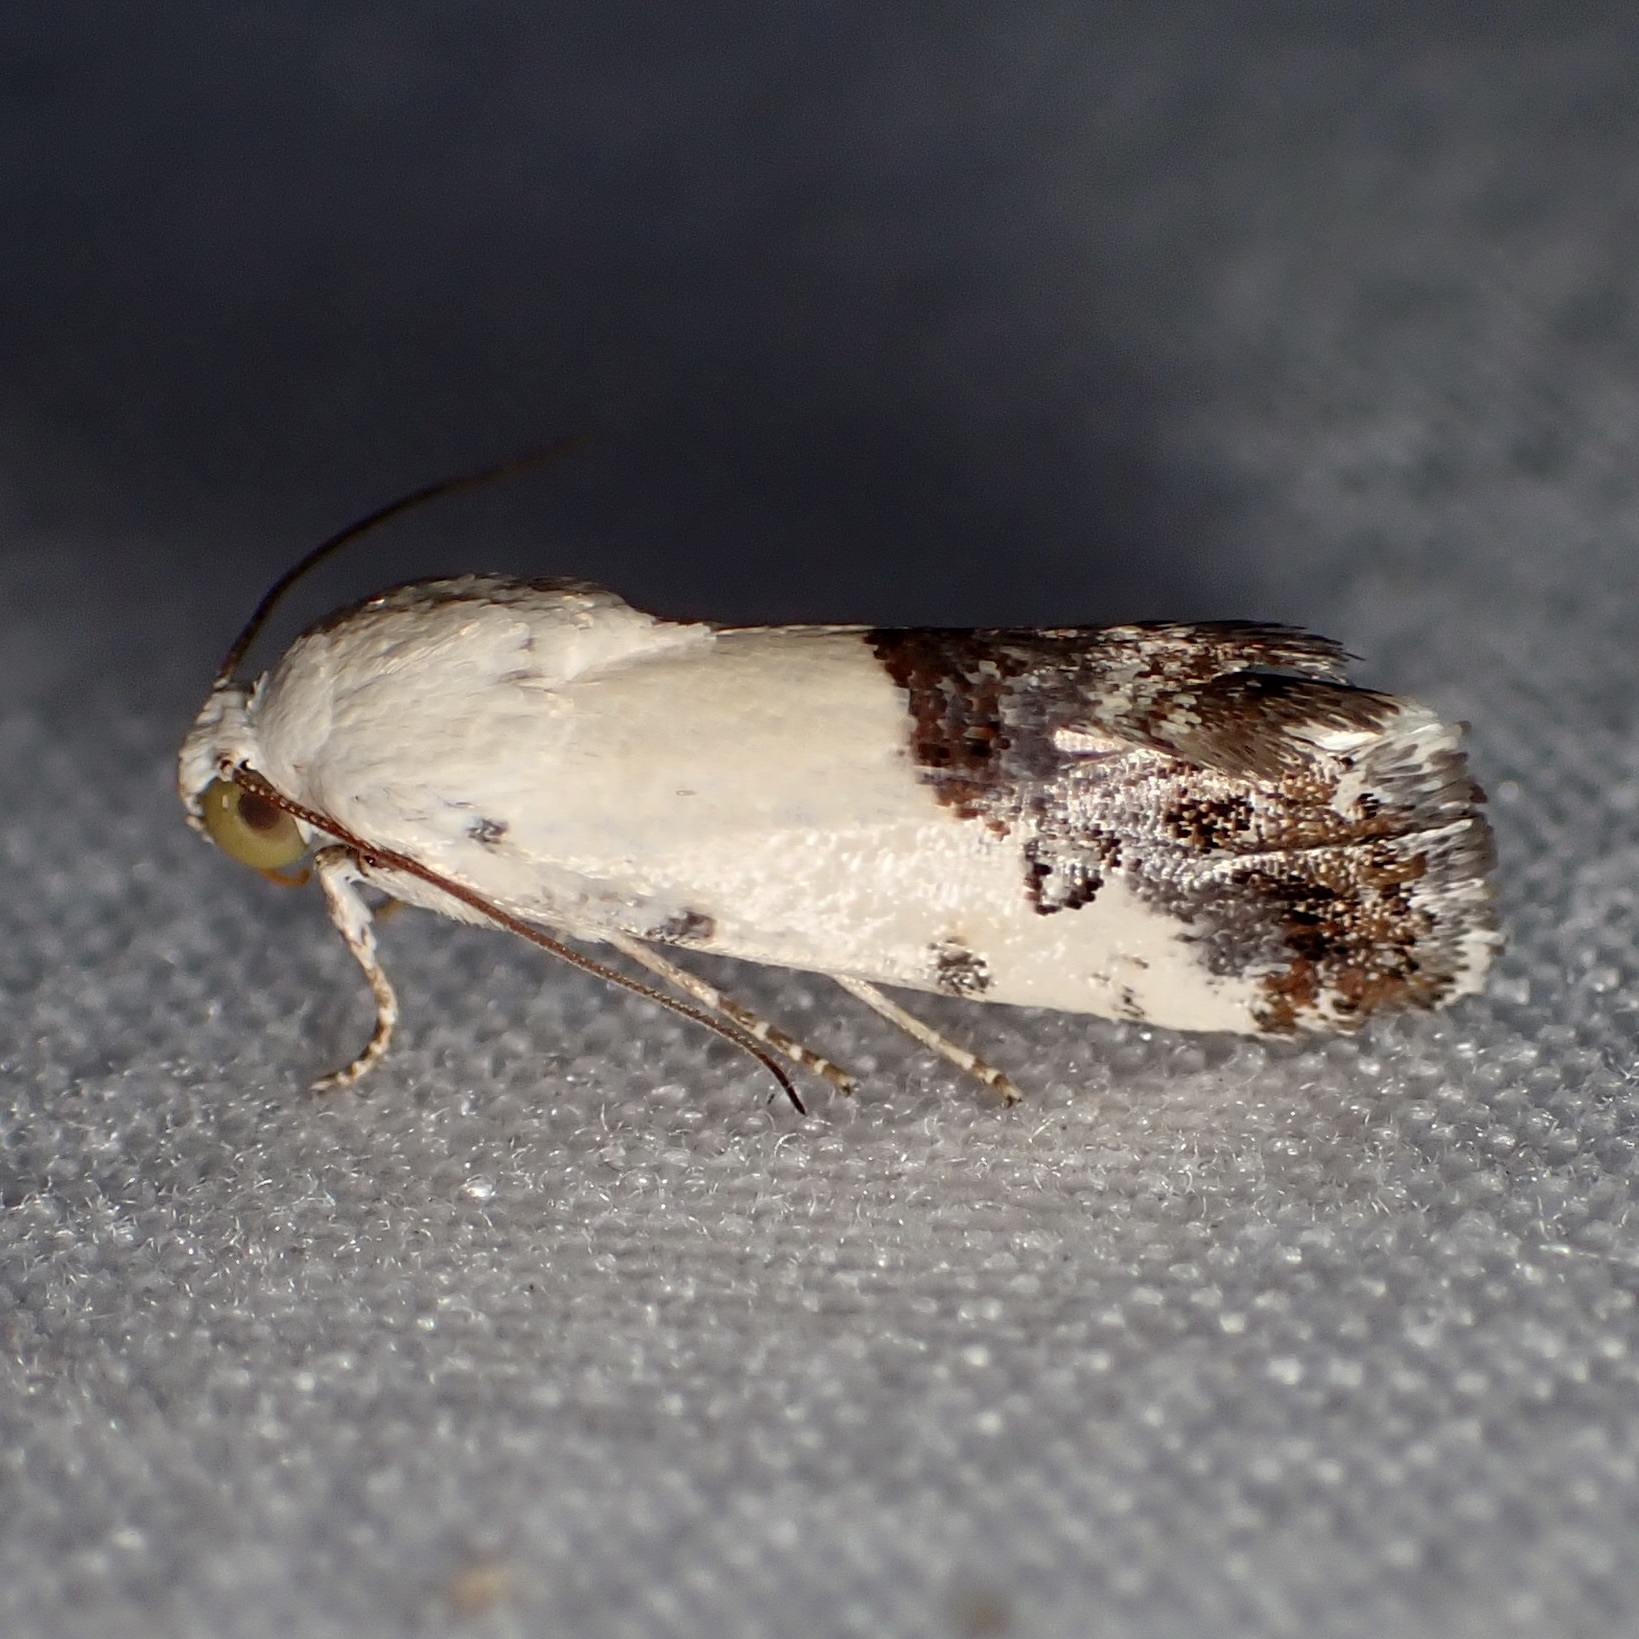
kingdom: Animalia
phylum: Arthropoda
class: Insecta
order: Lepidoptera
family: Noctuidae
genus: Acontia
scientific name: Acontia phecolisca
